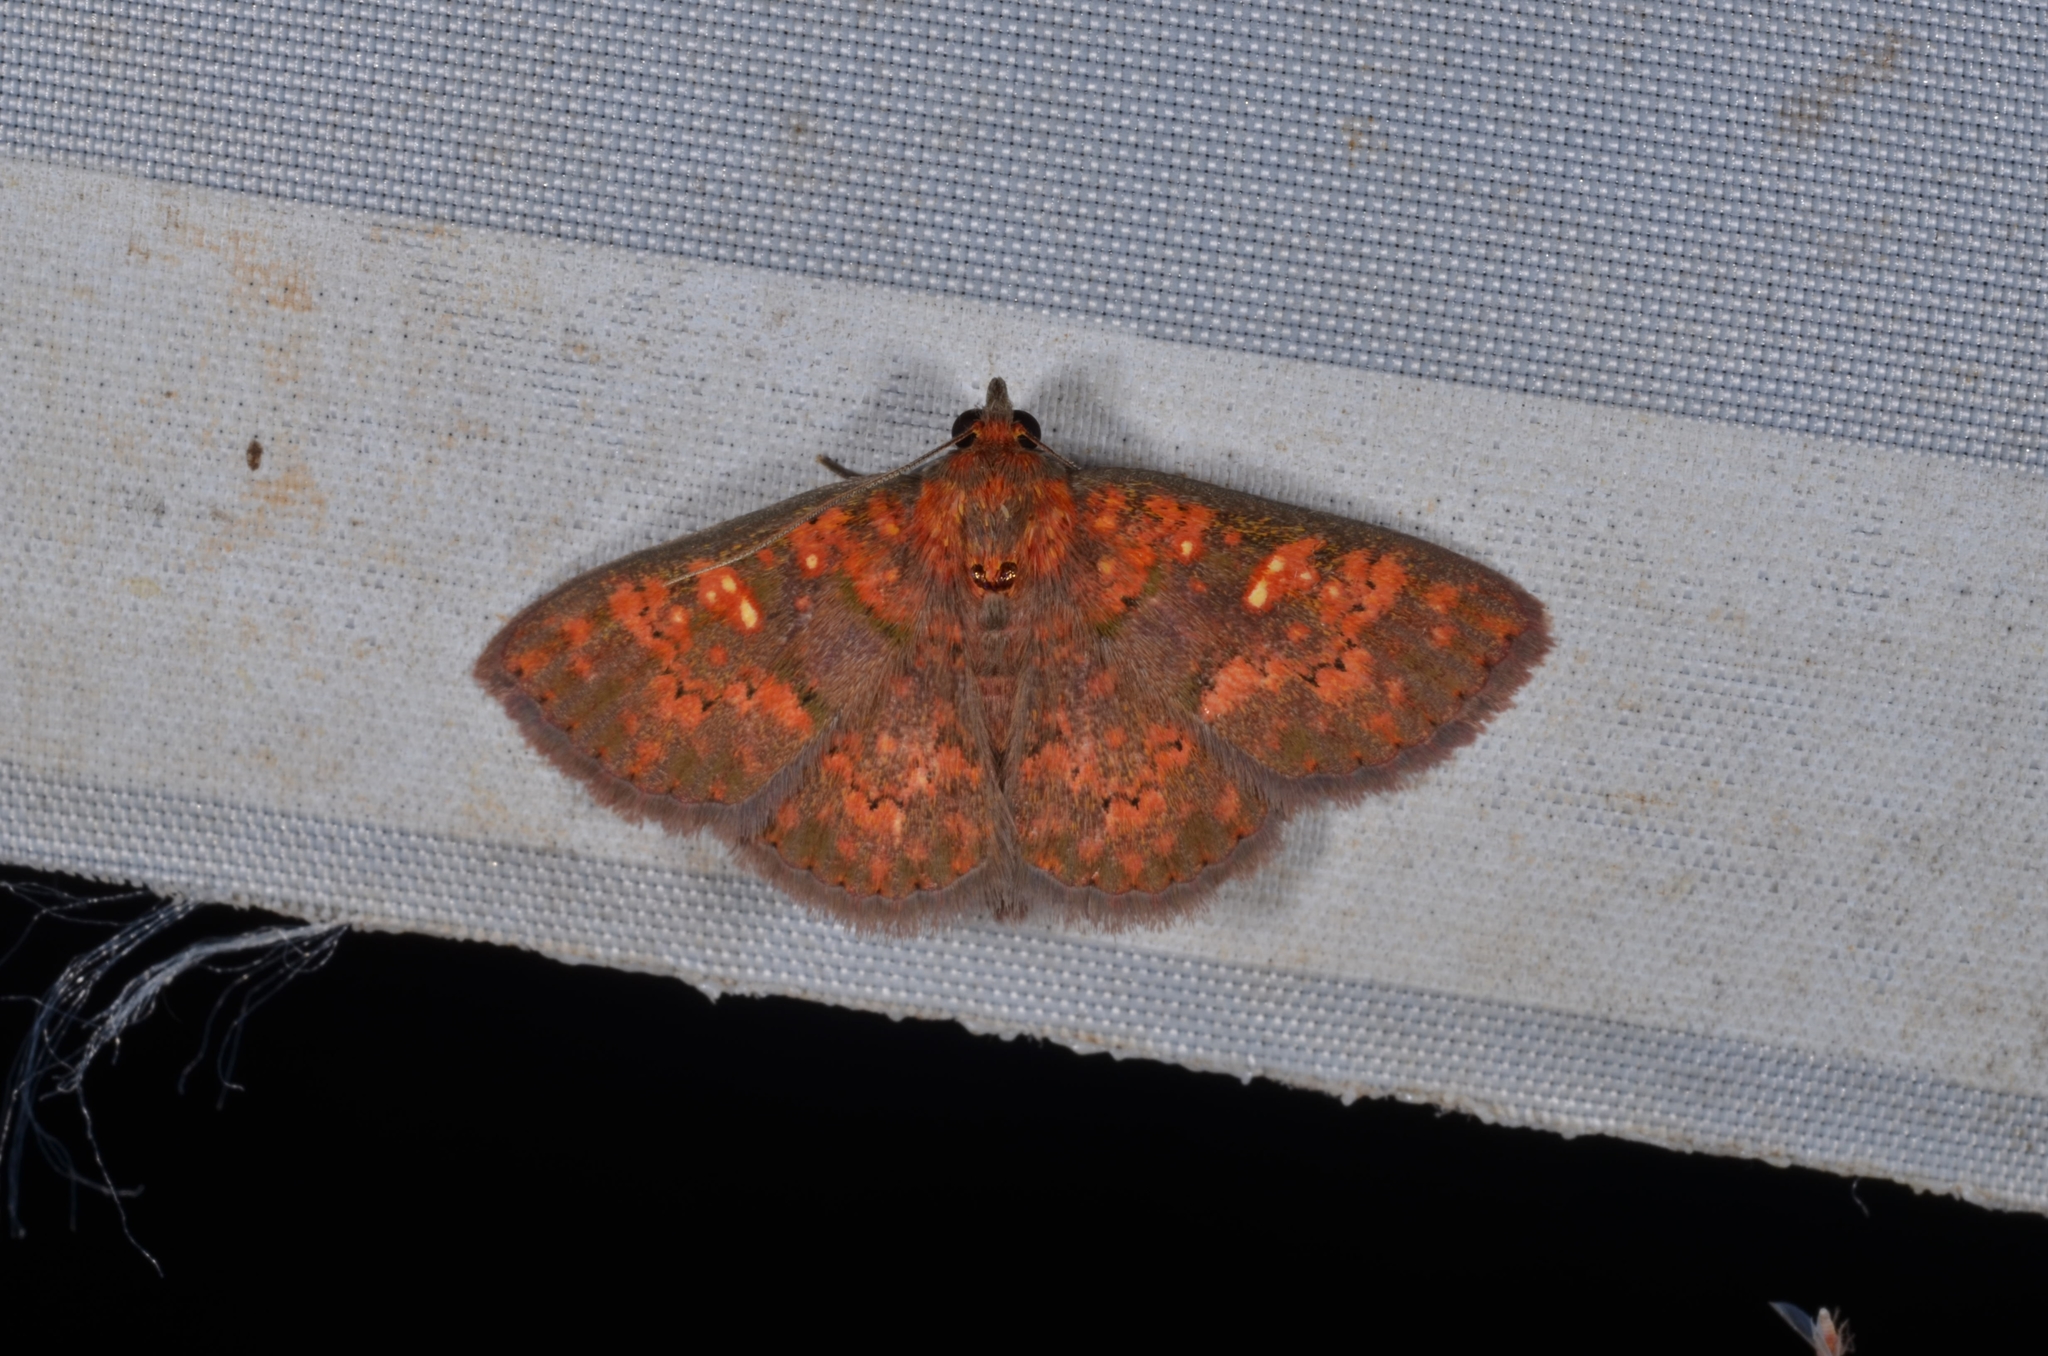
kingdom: Animalia
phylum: Arthropoda
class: Insecta
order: Lepidoptera
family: Erebidae
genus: Sarobides
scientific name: Sarobides inconclusa
